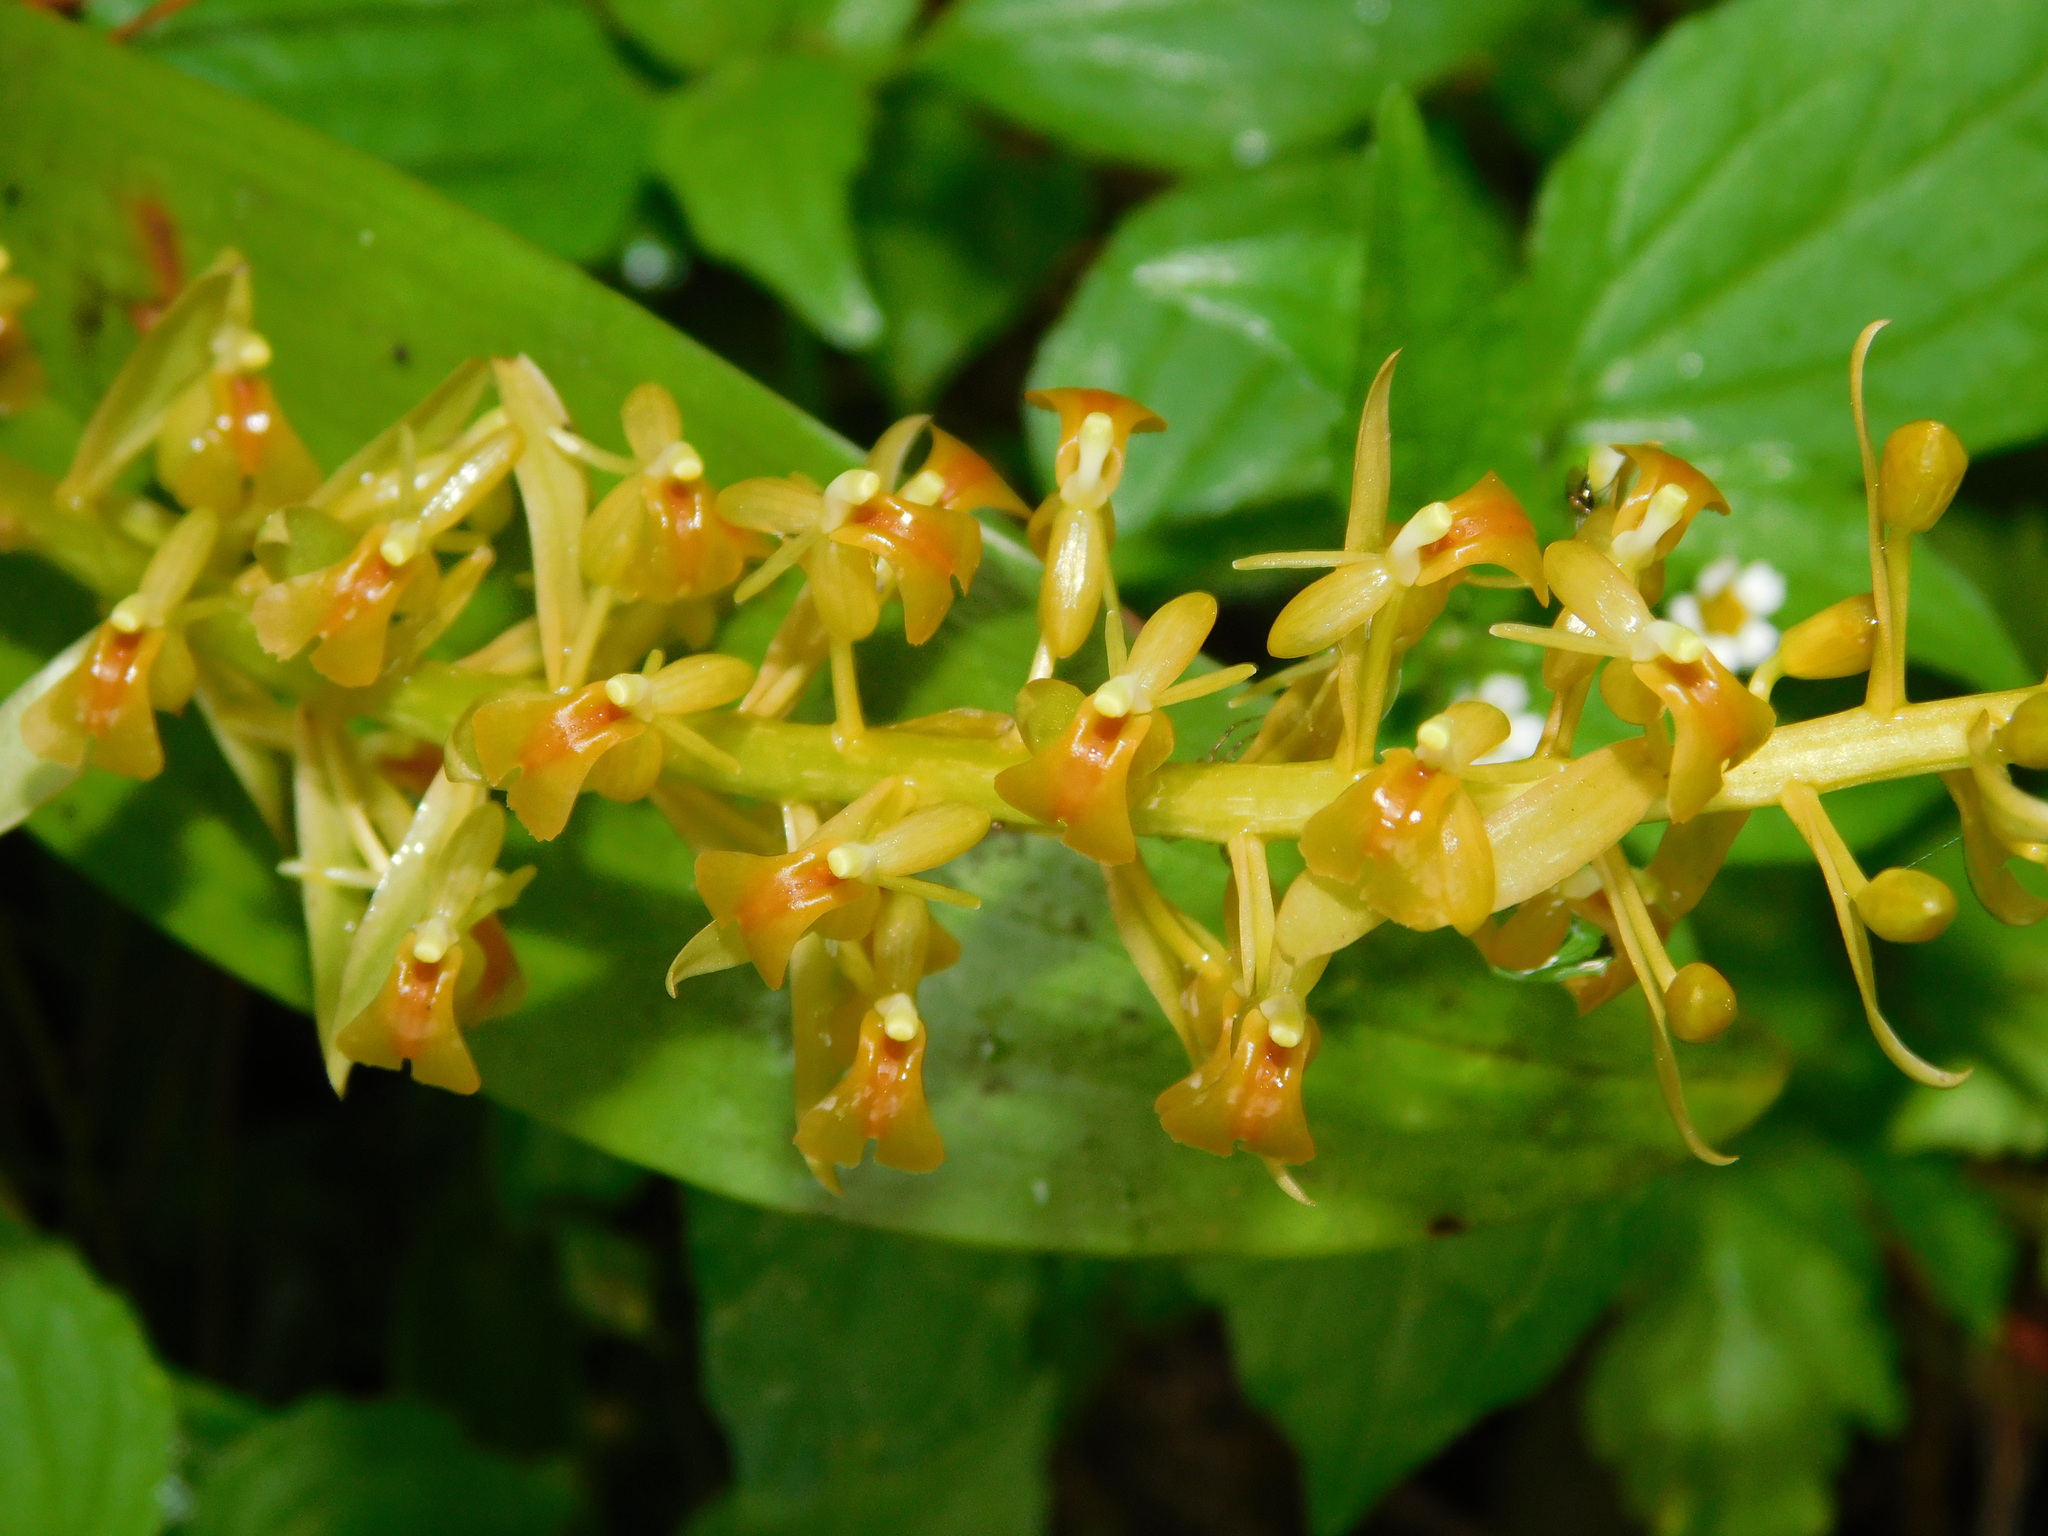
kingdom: Plantae
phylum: Tracheophyta
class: Liliopsida
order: Asparagales
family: Orchidaceae
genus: Liparis
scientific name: Liparis pallida
